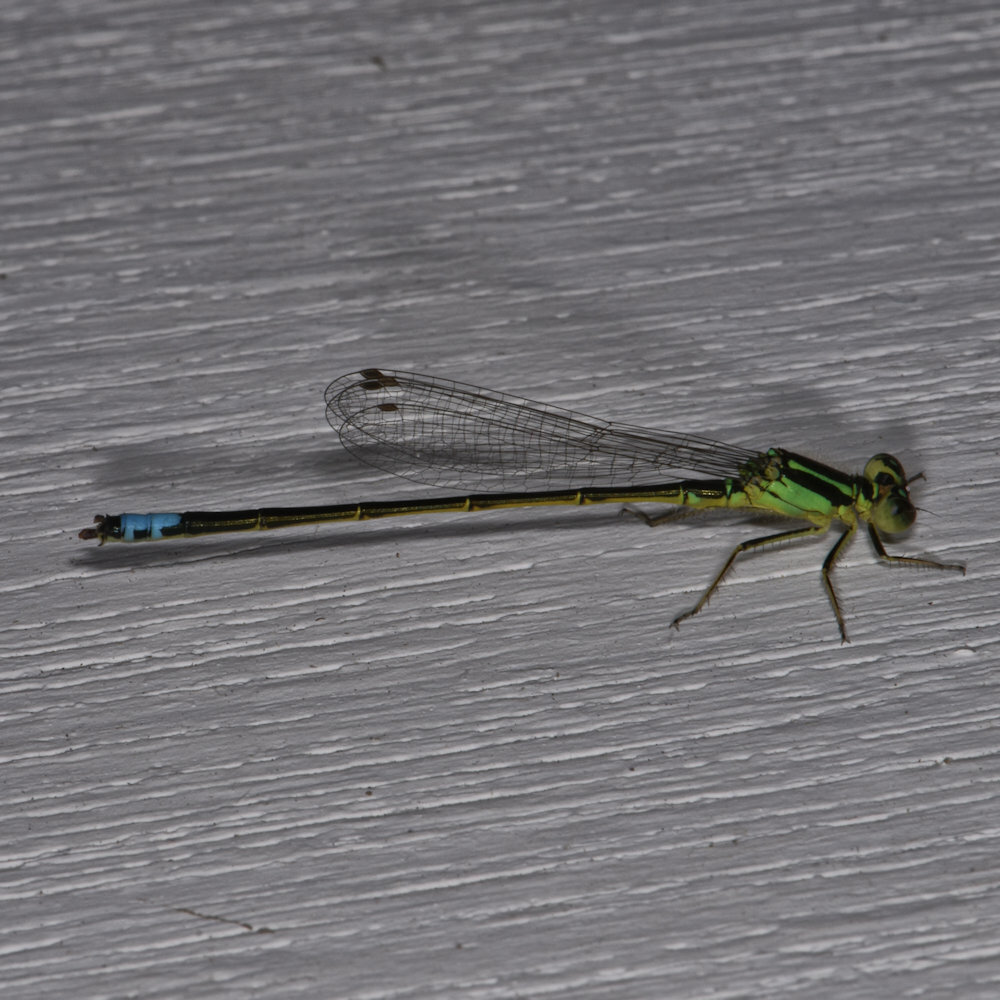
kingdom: Animalia
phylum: Arthropoda
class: Insecta
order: Odonata
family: Coenagrionidae
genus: Ischnura
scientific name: Ischnura verticalis
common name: Eastern forktail
